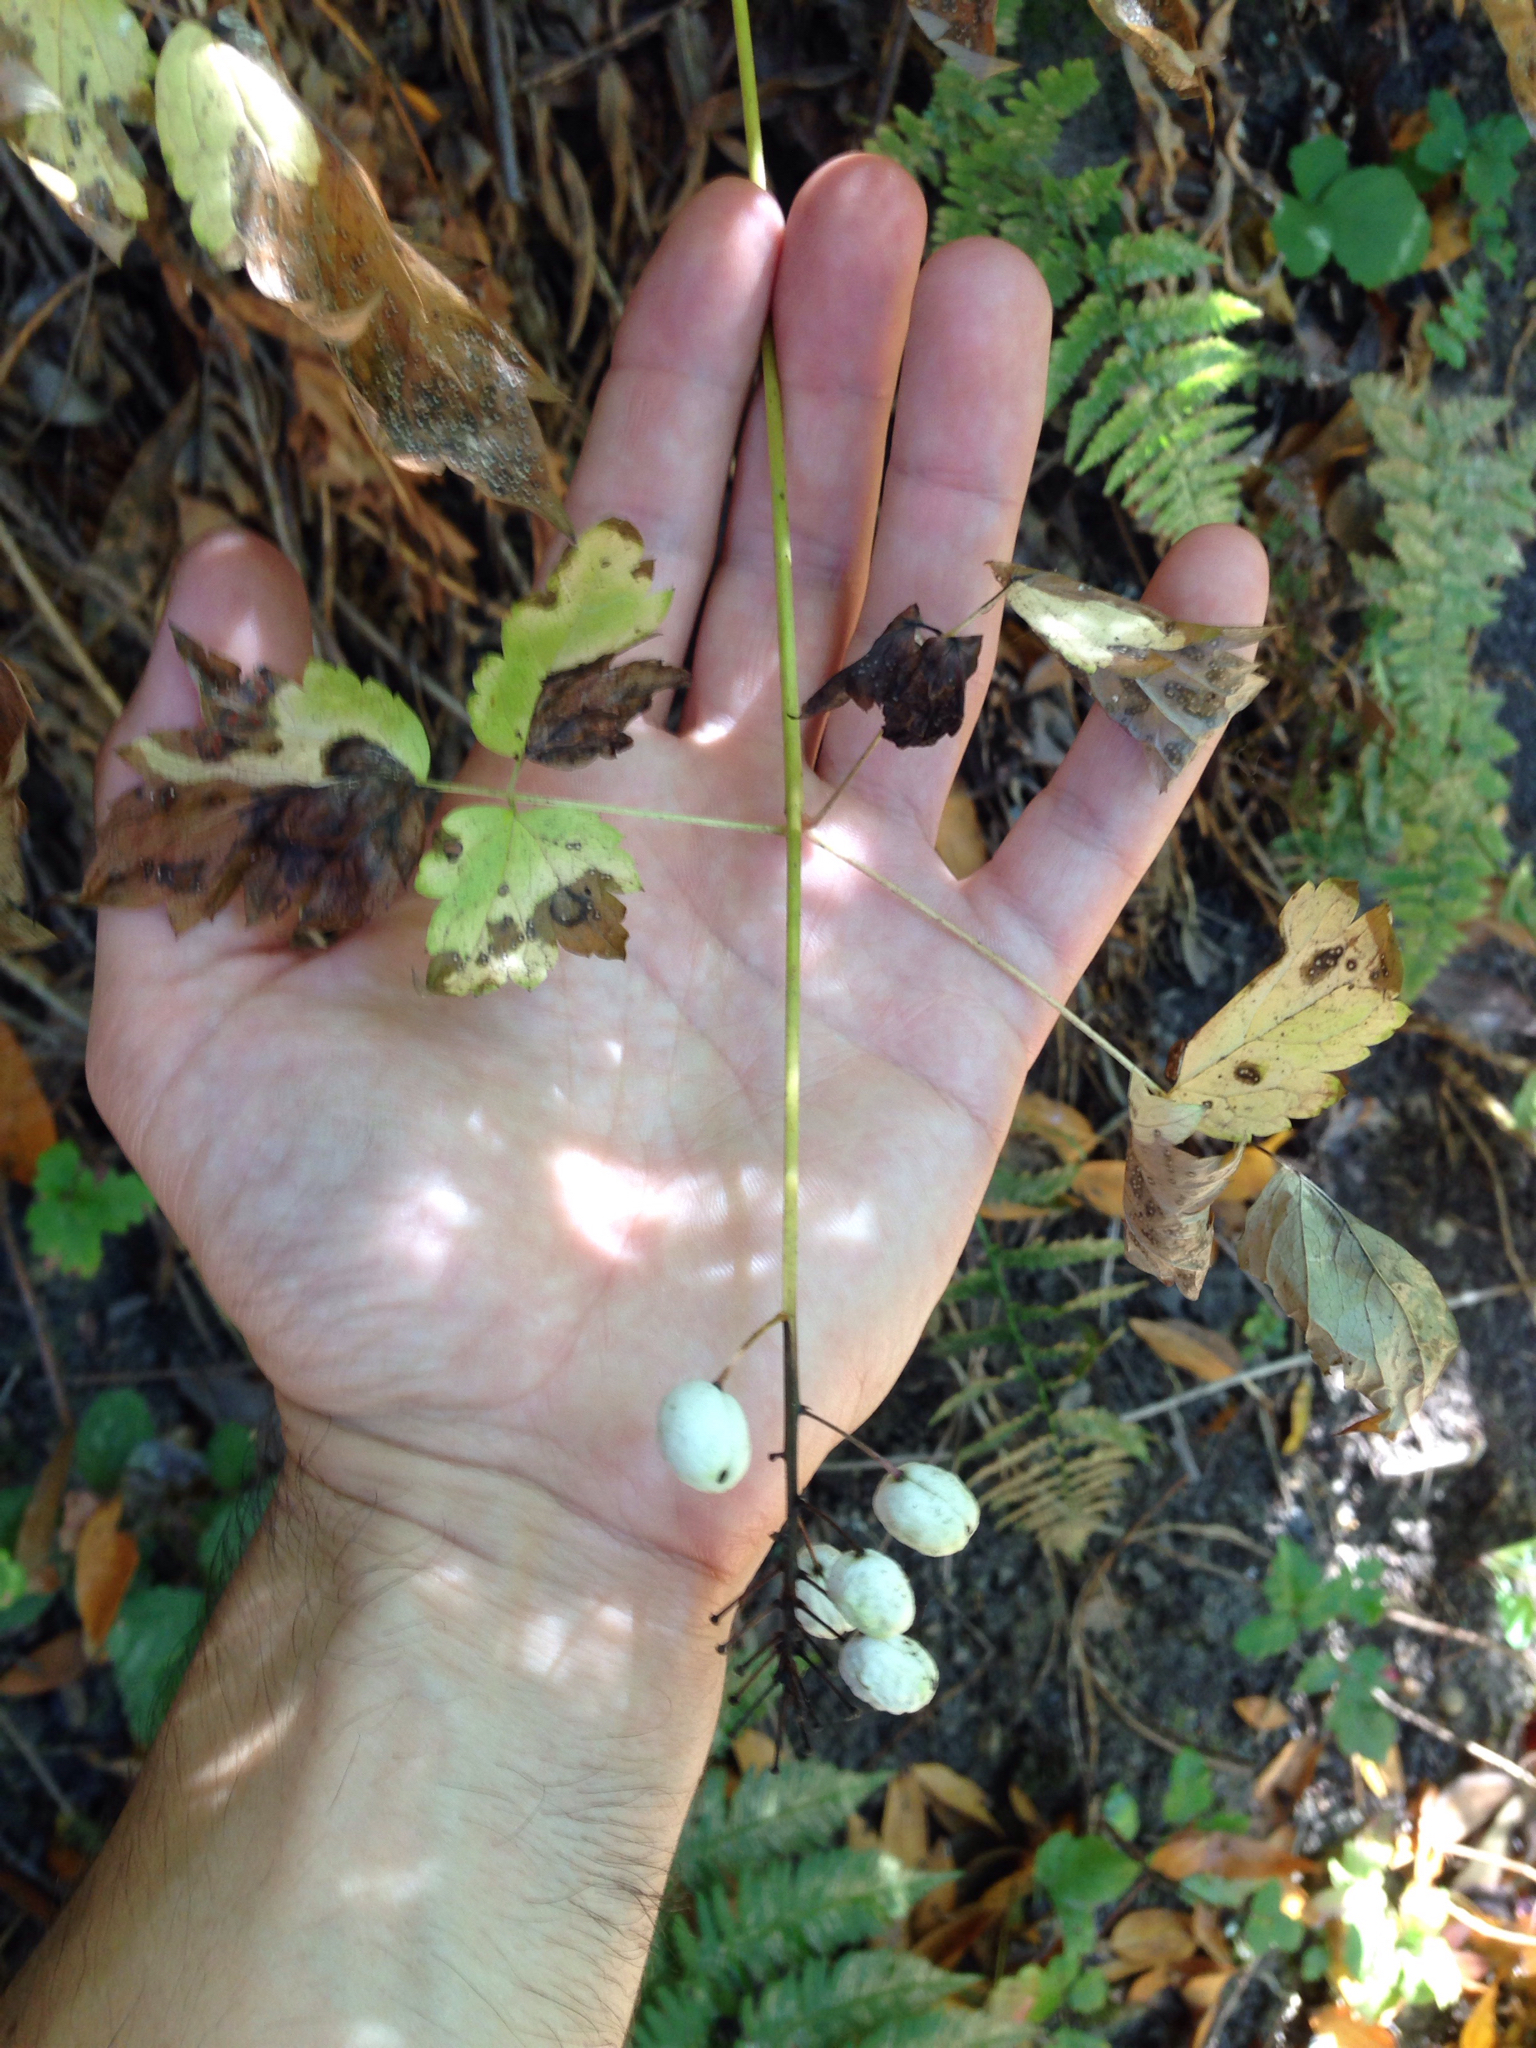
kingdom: Plantae
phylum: Tracheophyta
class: Magnoliopsida
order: Ranunculales
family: Ranunculaceae
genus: Actaea
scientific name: Actaea rubra
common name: Red baneberry
